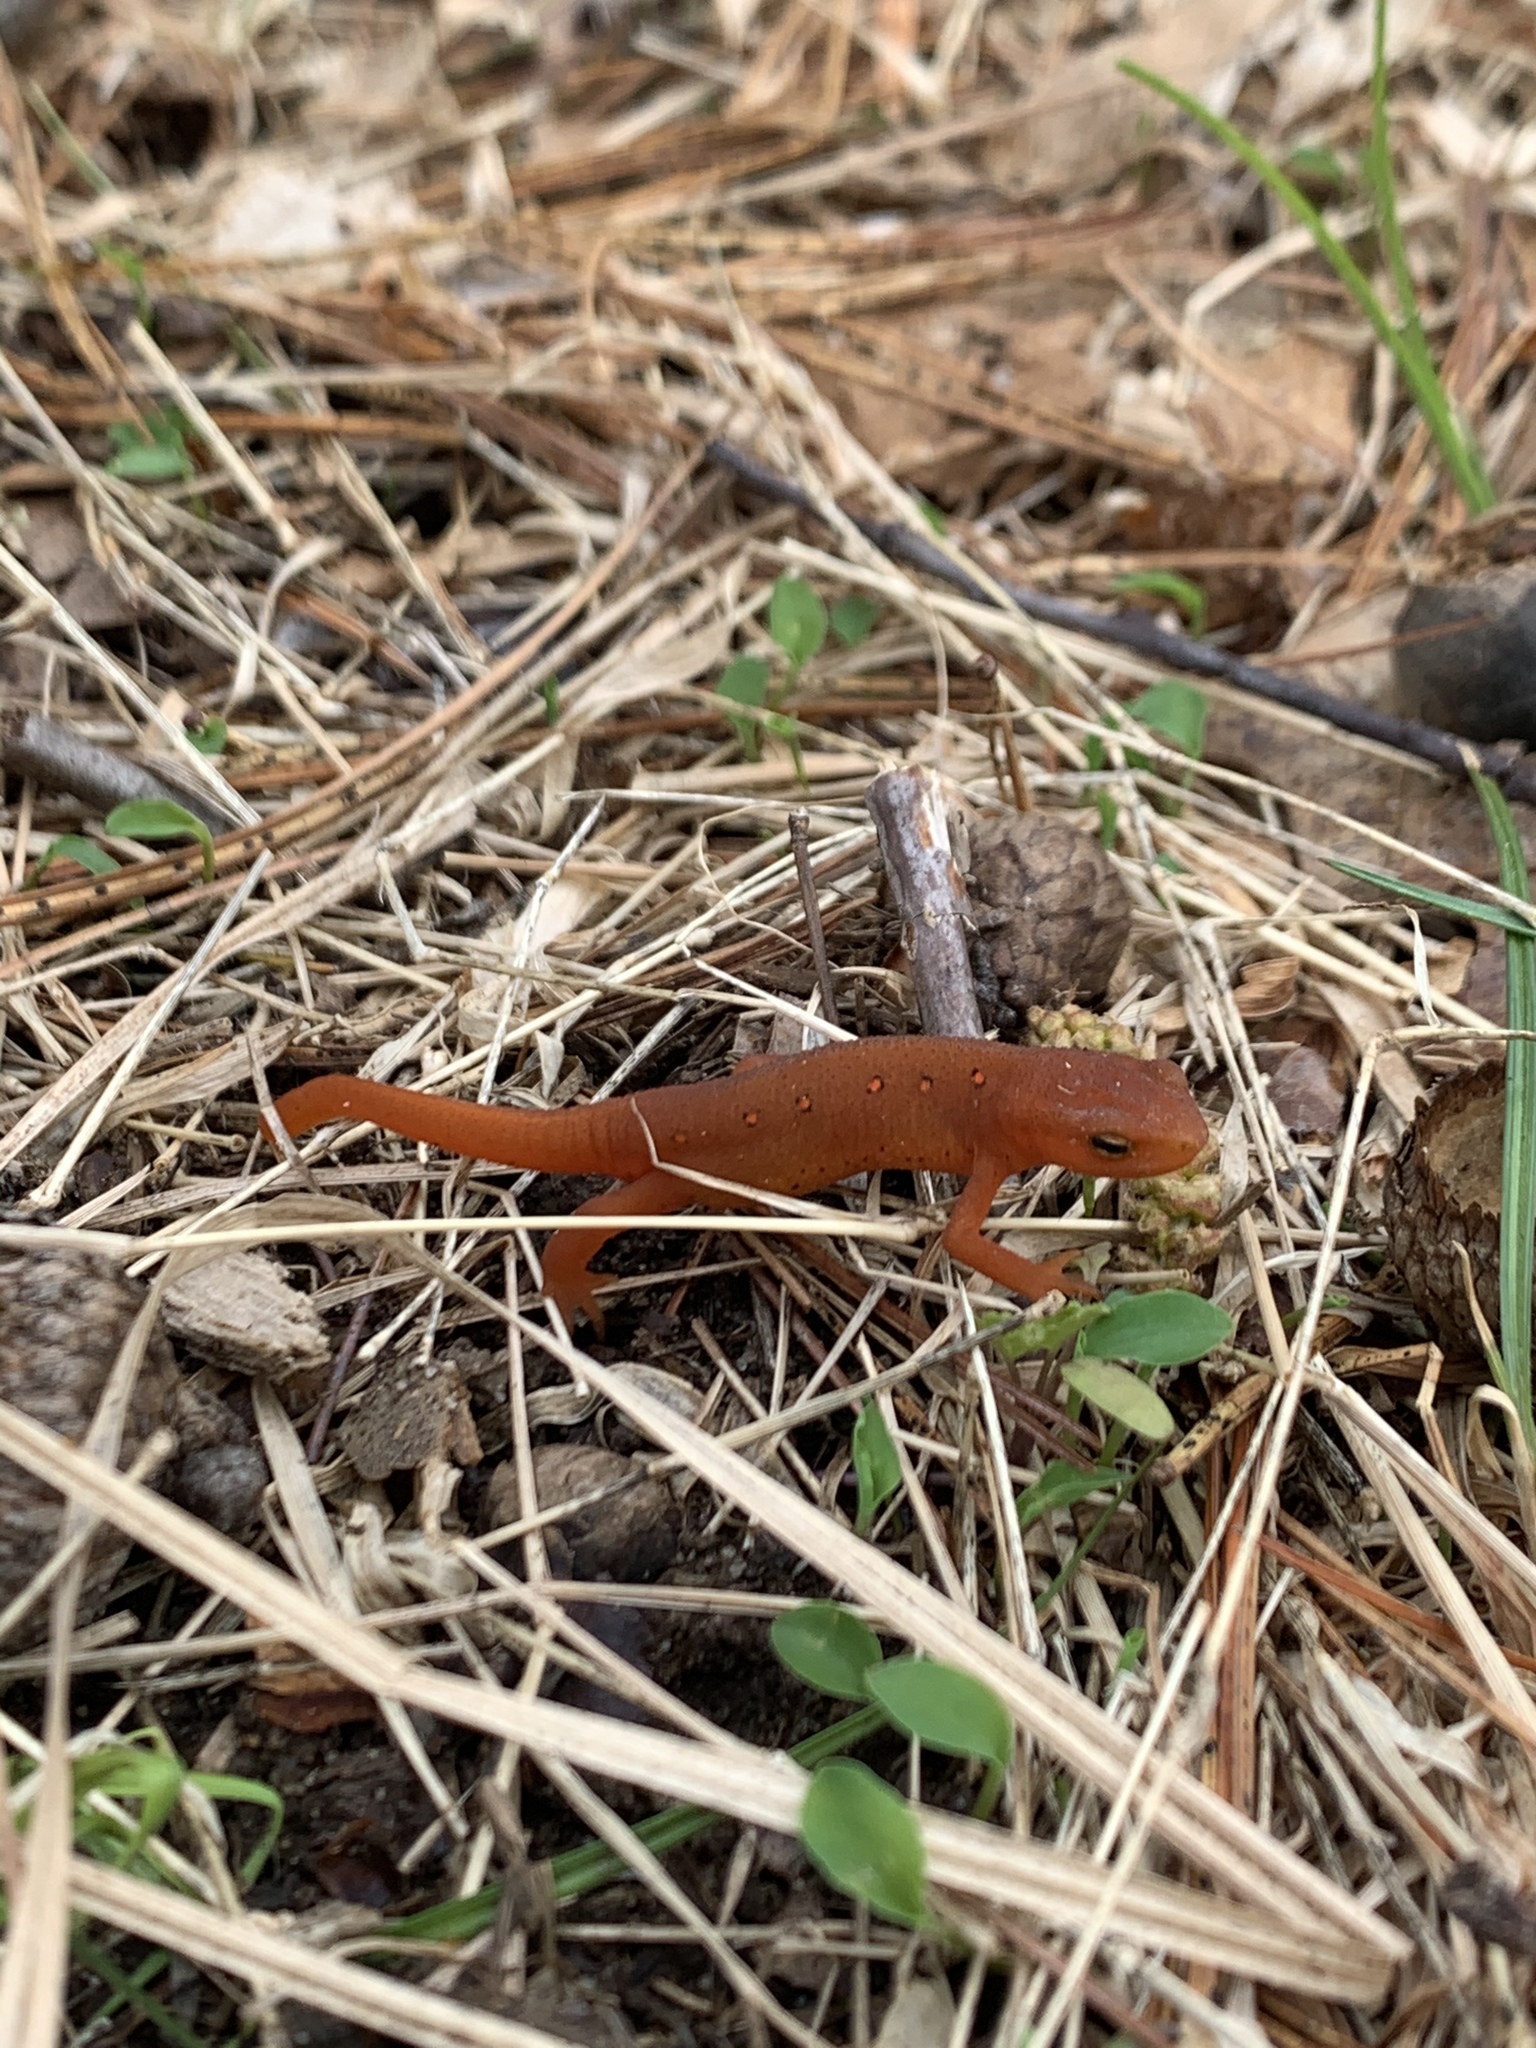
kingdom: Animalia
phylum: Chordata
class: Amphibia
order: Caudata
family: Salamandridae
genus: Notophthalmus
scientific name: Notophthalmus viridescens
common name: Eastern newt
